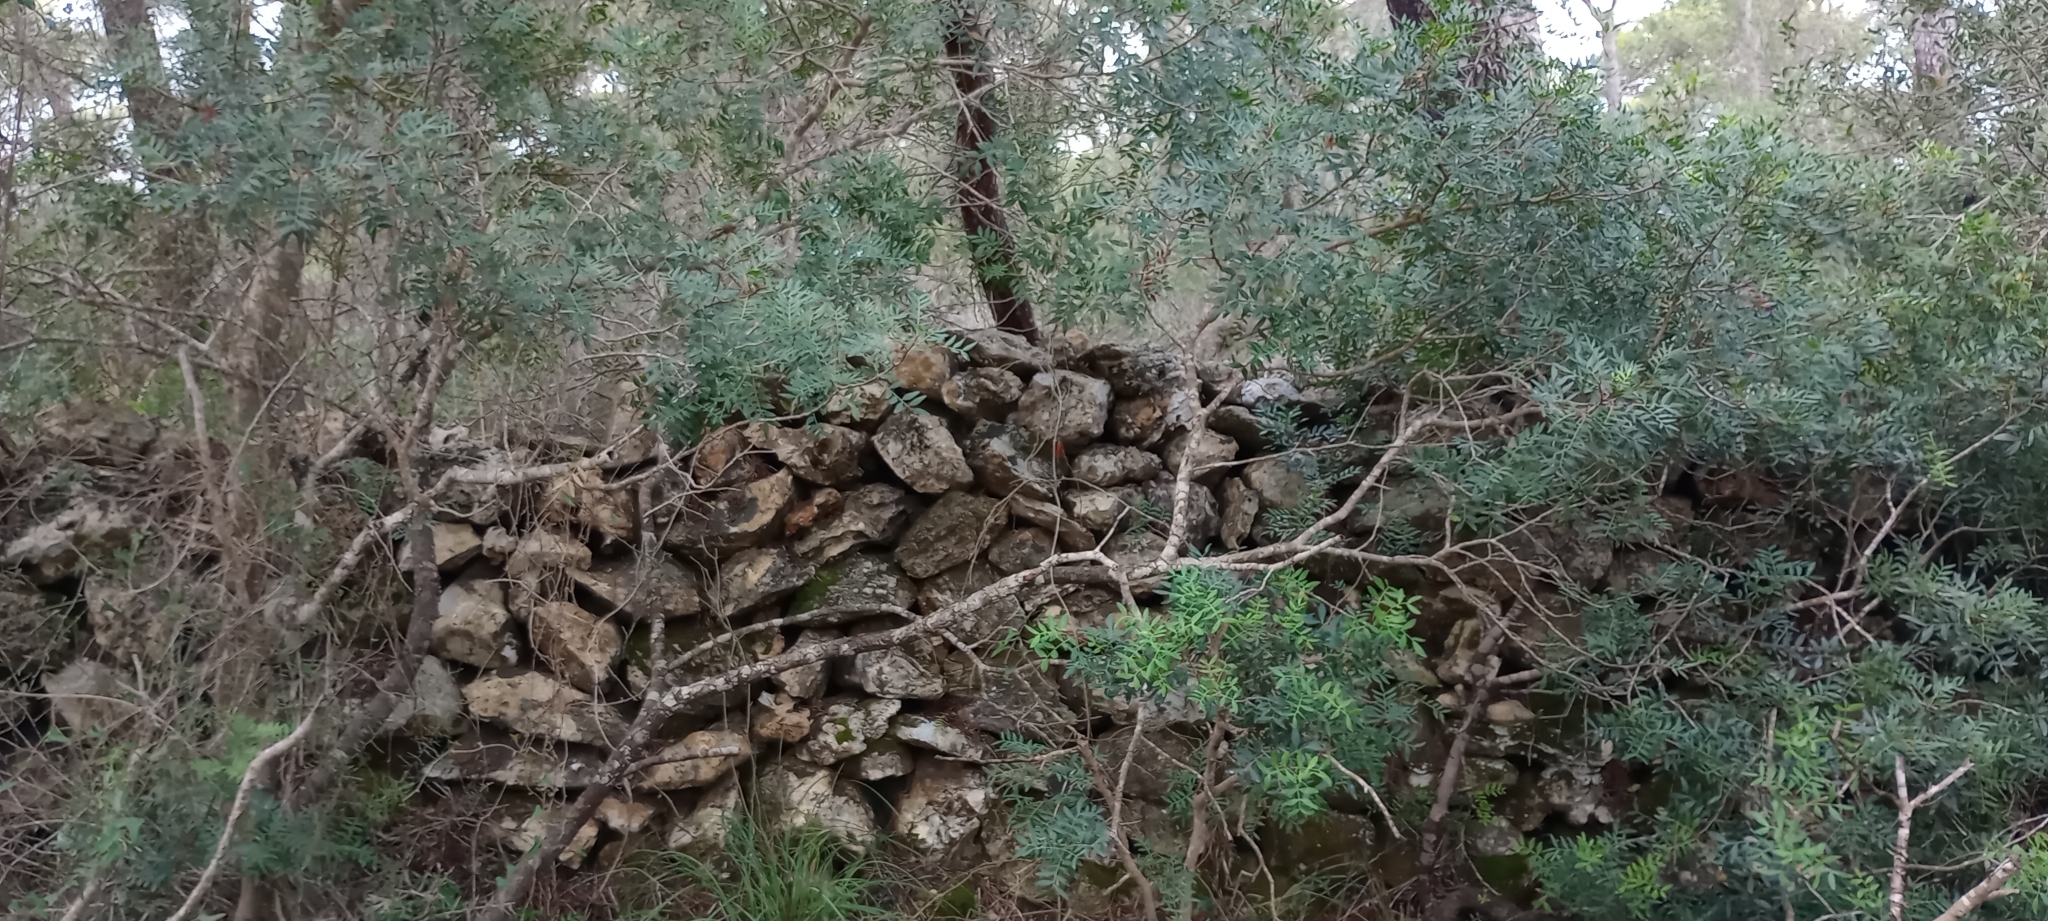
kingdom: Plantae
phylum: Tracheophyta
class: Magnoliopsida
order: Sapindales
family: Anacardiaceae
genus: Pistacia
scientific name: Pistacia lentiscus
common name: Lentisk
